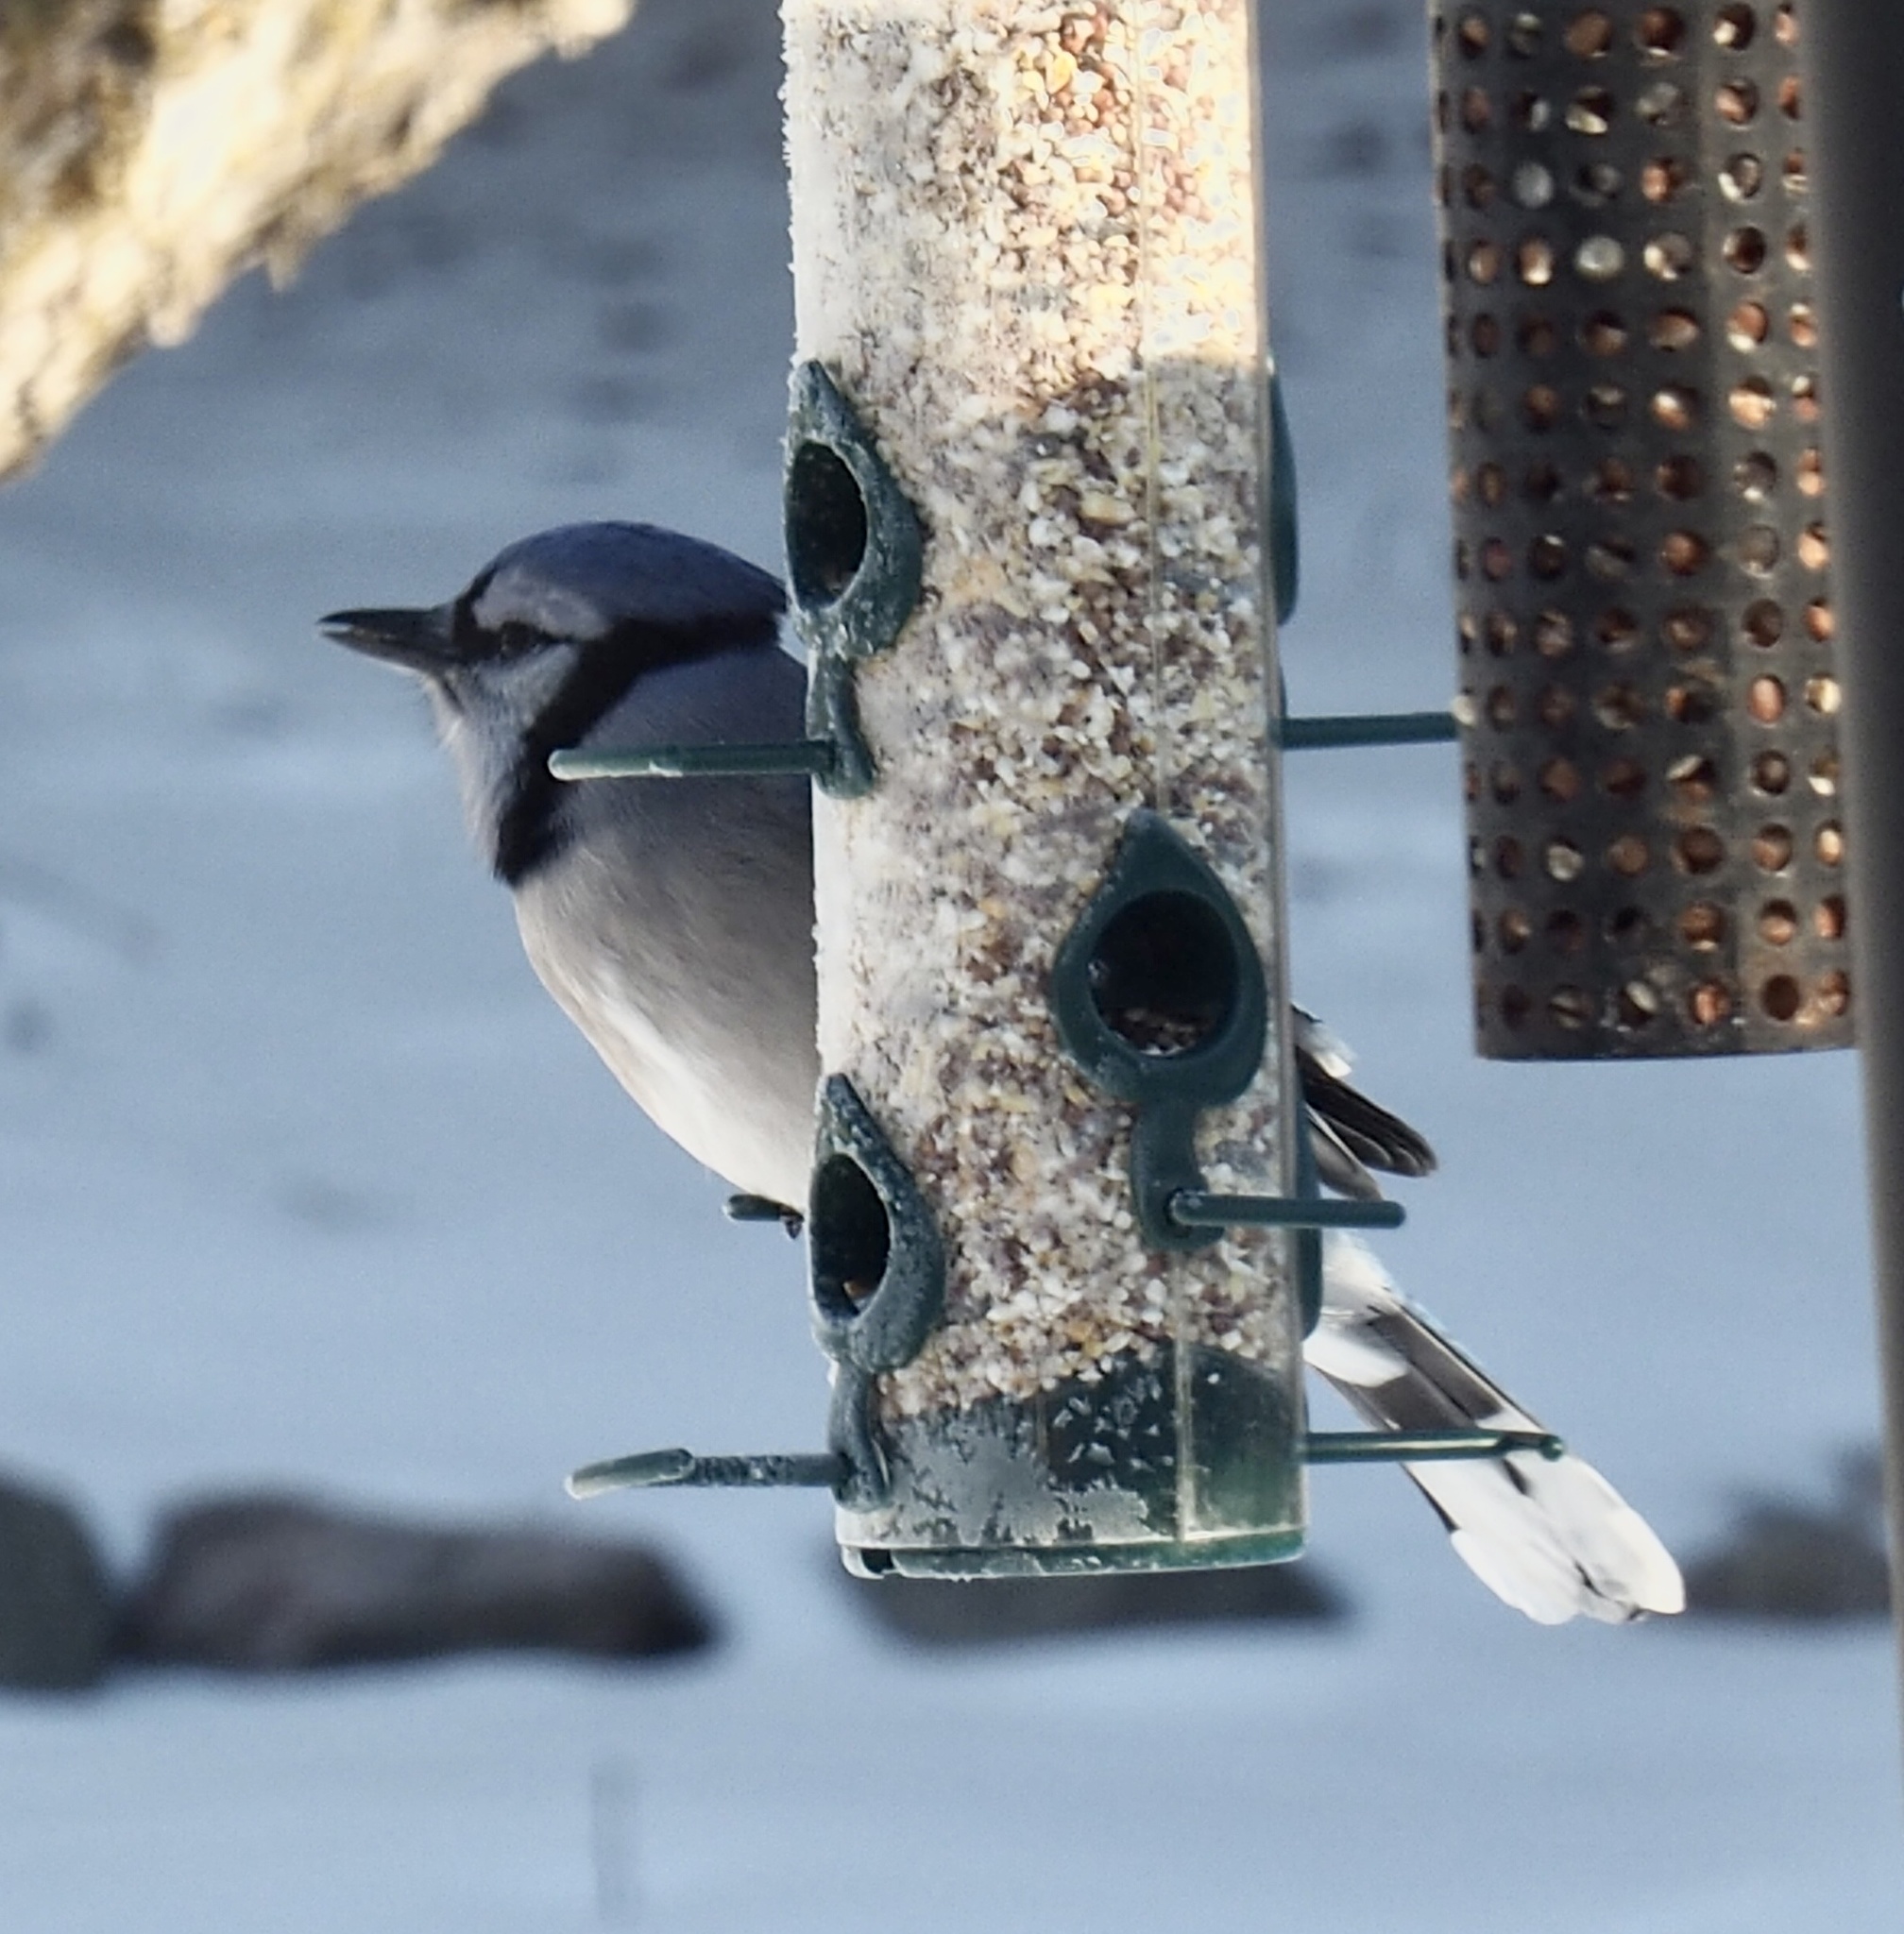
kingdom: Animalia
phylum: Chordata
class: Aves
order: Passeriformes
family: Corvidae
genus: Cyanocitta
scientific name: Cyanocitta cristata
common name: Blue jay
